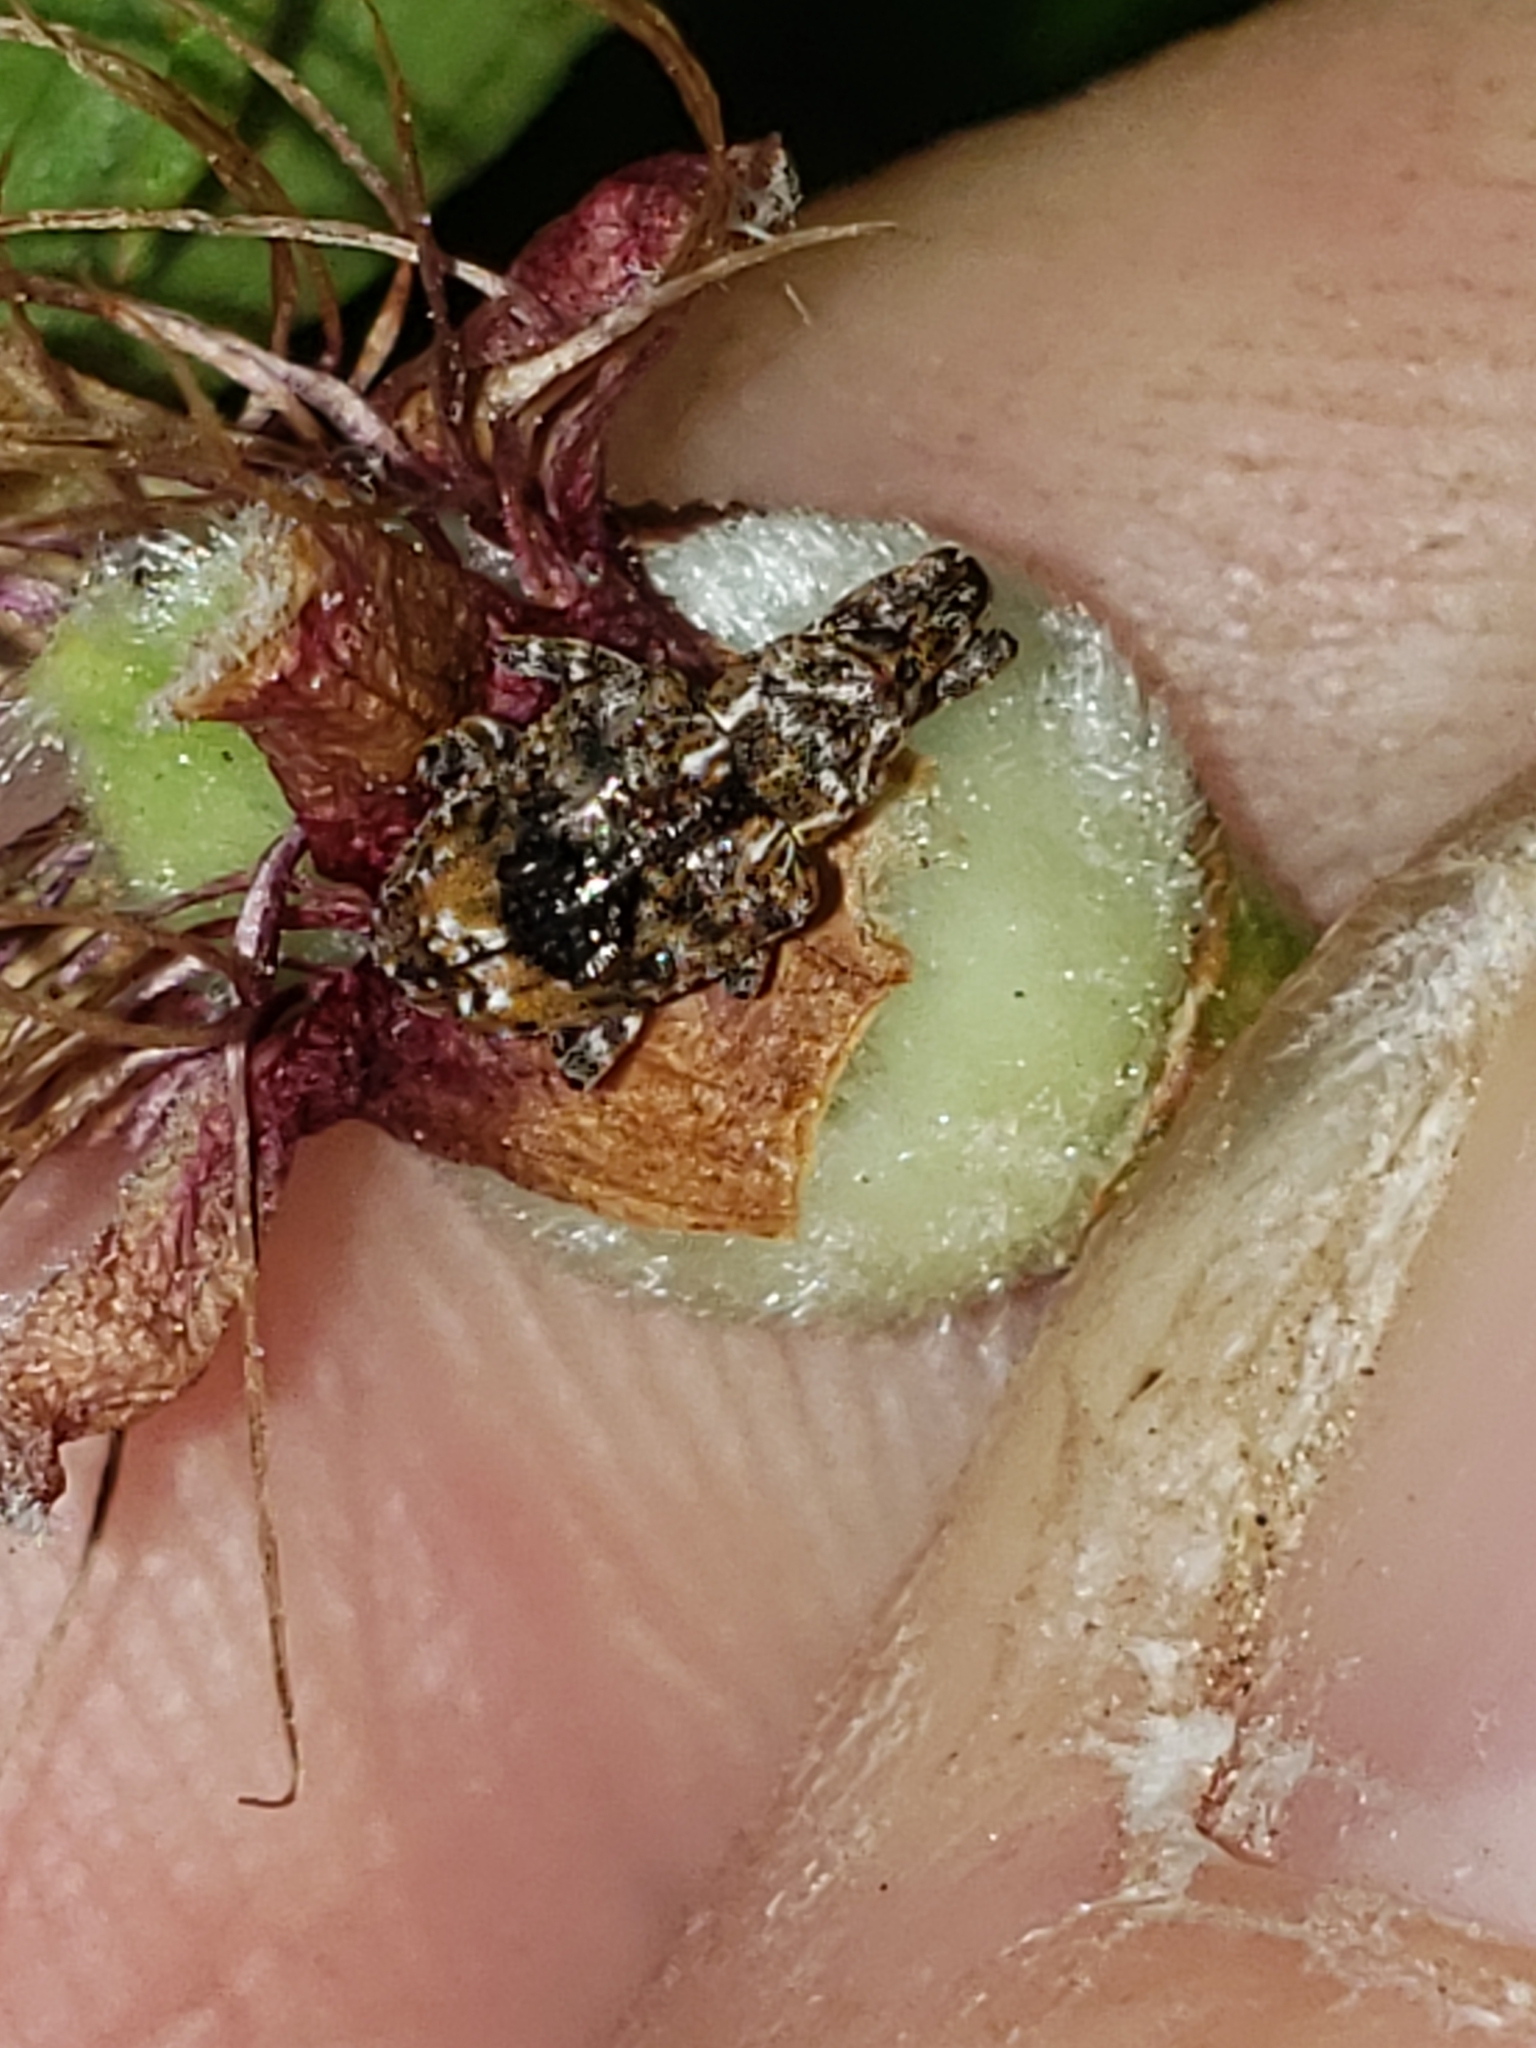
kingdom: Animalia
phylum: Arthropoda
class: Insecta
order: Coleoptera
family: Curculionidae
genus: Conotrachelus
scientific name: Conotrachelus nenuphar
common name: Plum curculio
